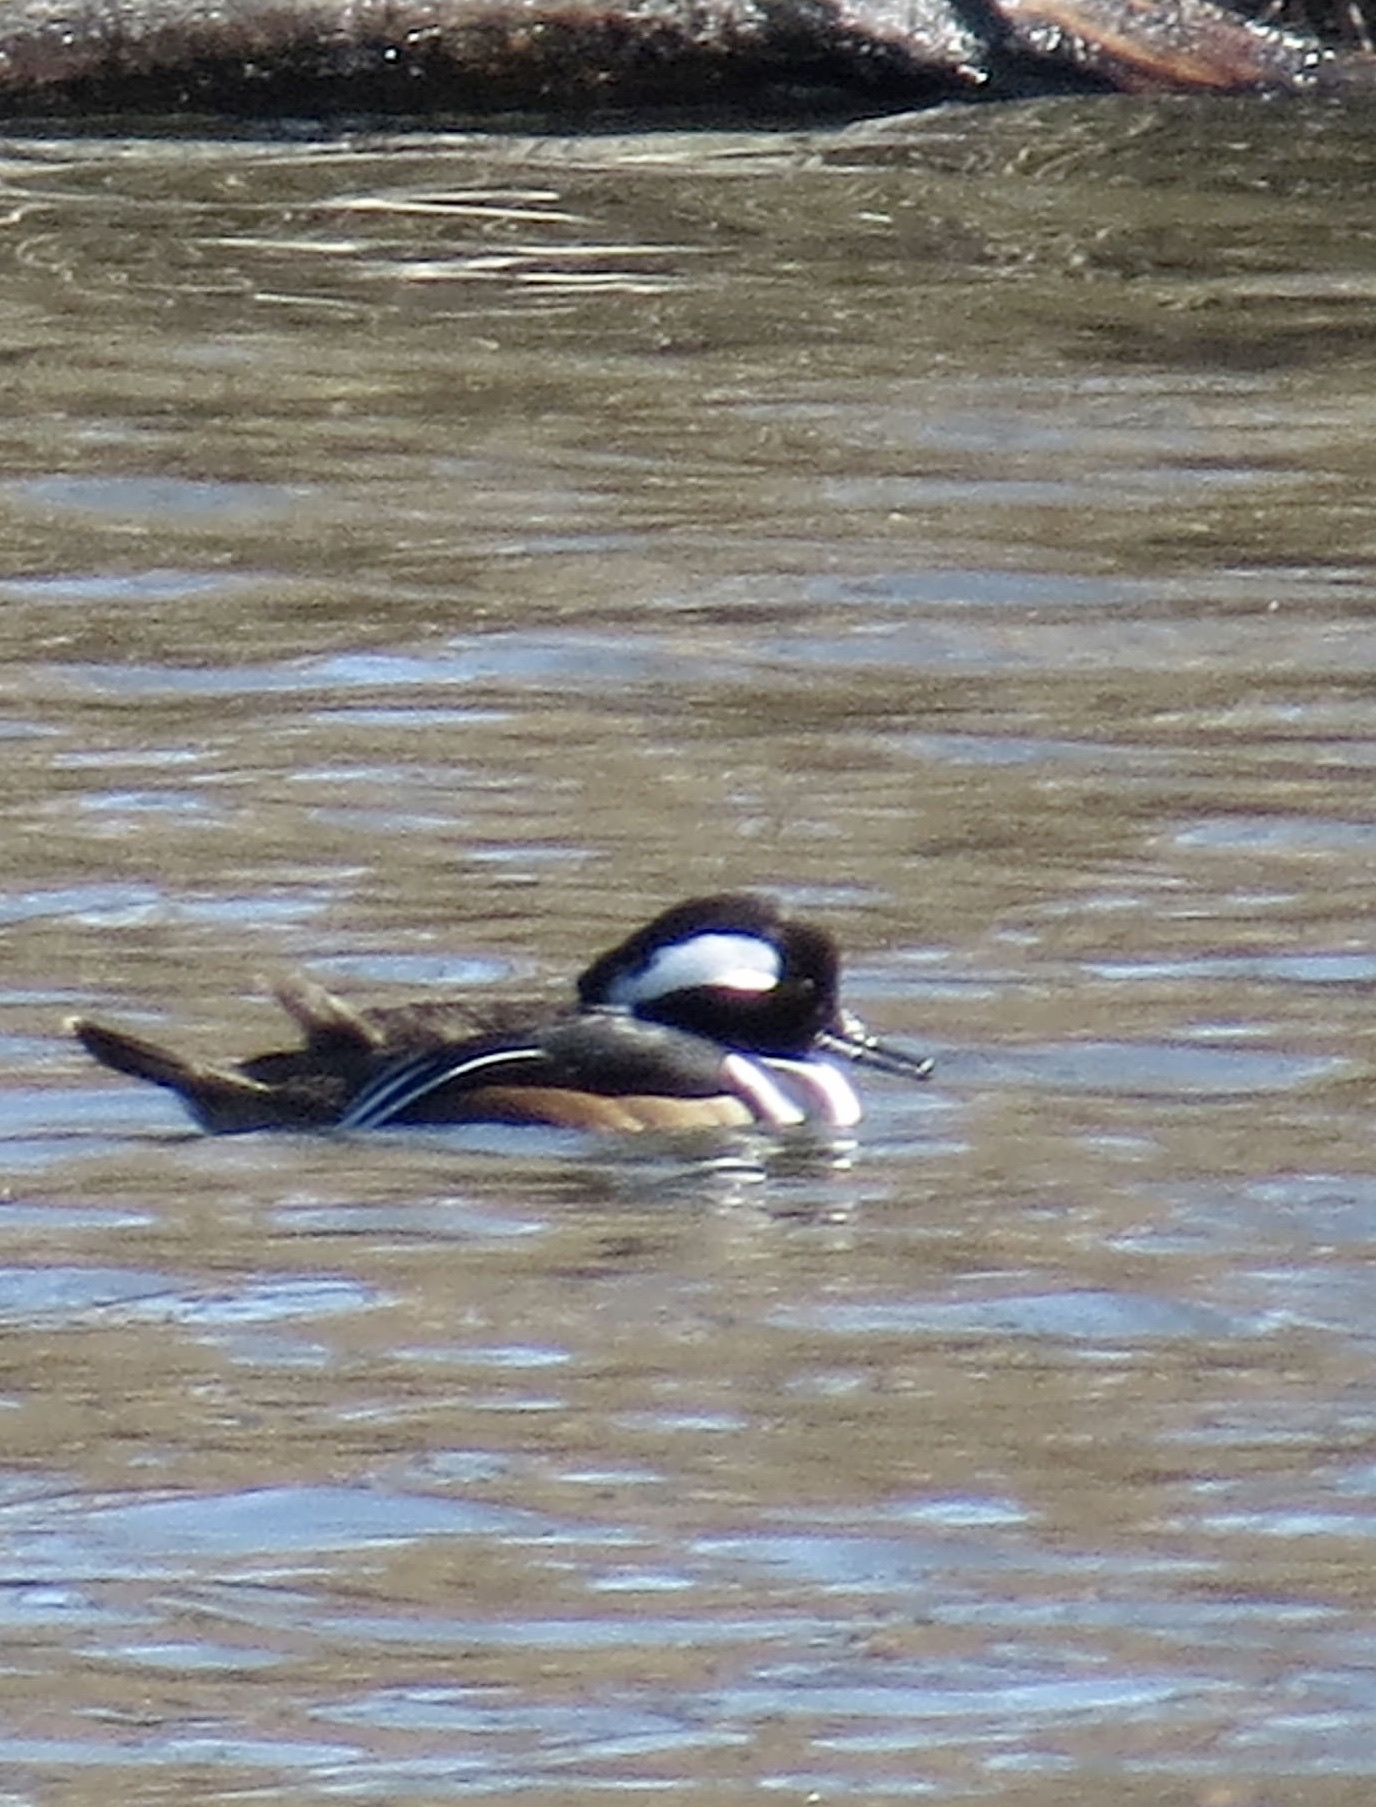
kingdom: Animalia
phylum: Chordata
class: Aves
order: Anseriformes
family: Anatidae
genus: Lophodytes
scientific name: Lophodytes cucullatus
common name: Hooded merganser
